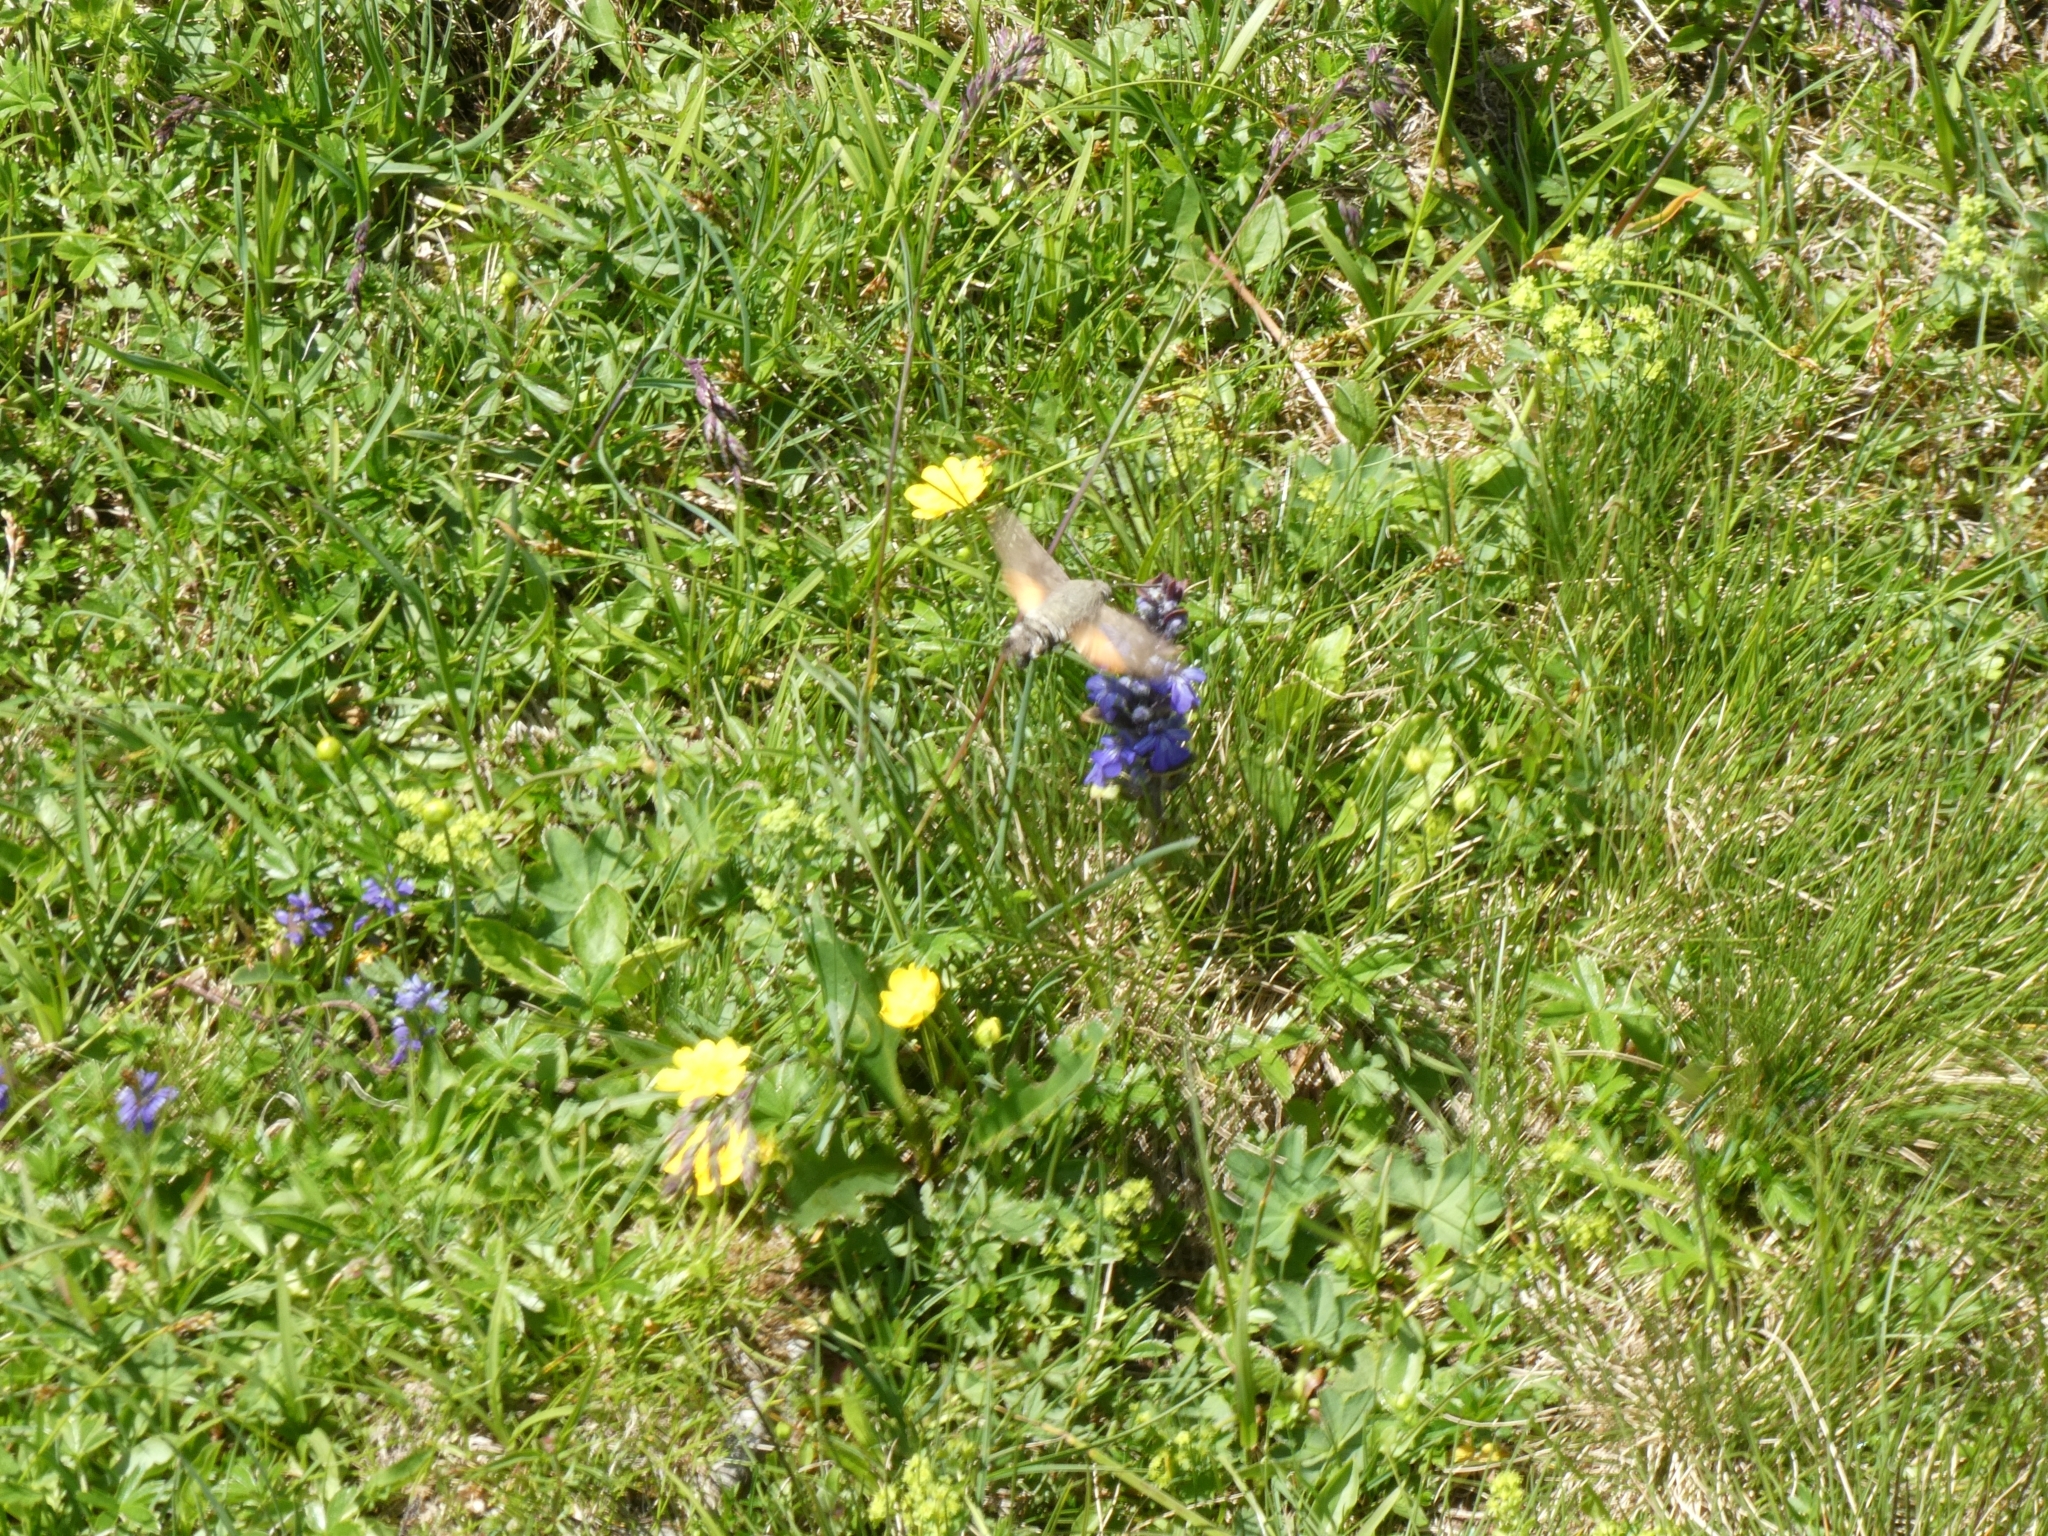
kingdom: Animalia
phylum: Arthropoda
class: Insecta
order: Lepidoptera
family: Sphingidae
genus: Macroglossum
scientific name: Macroglossum stellatarum
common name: Humming-bird hawk-moth
